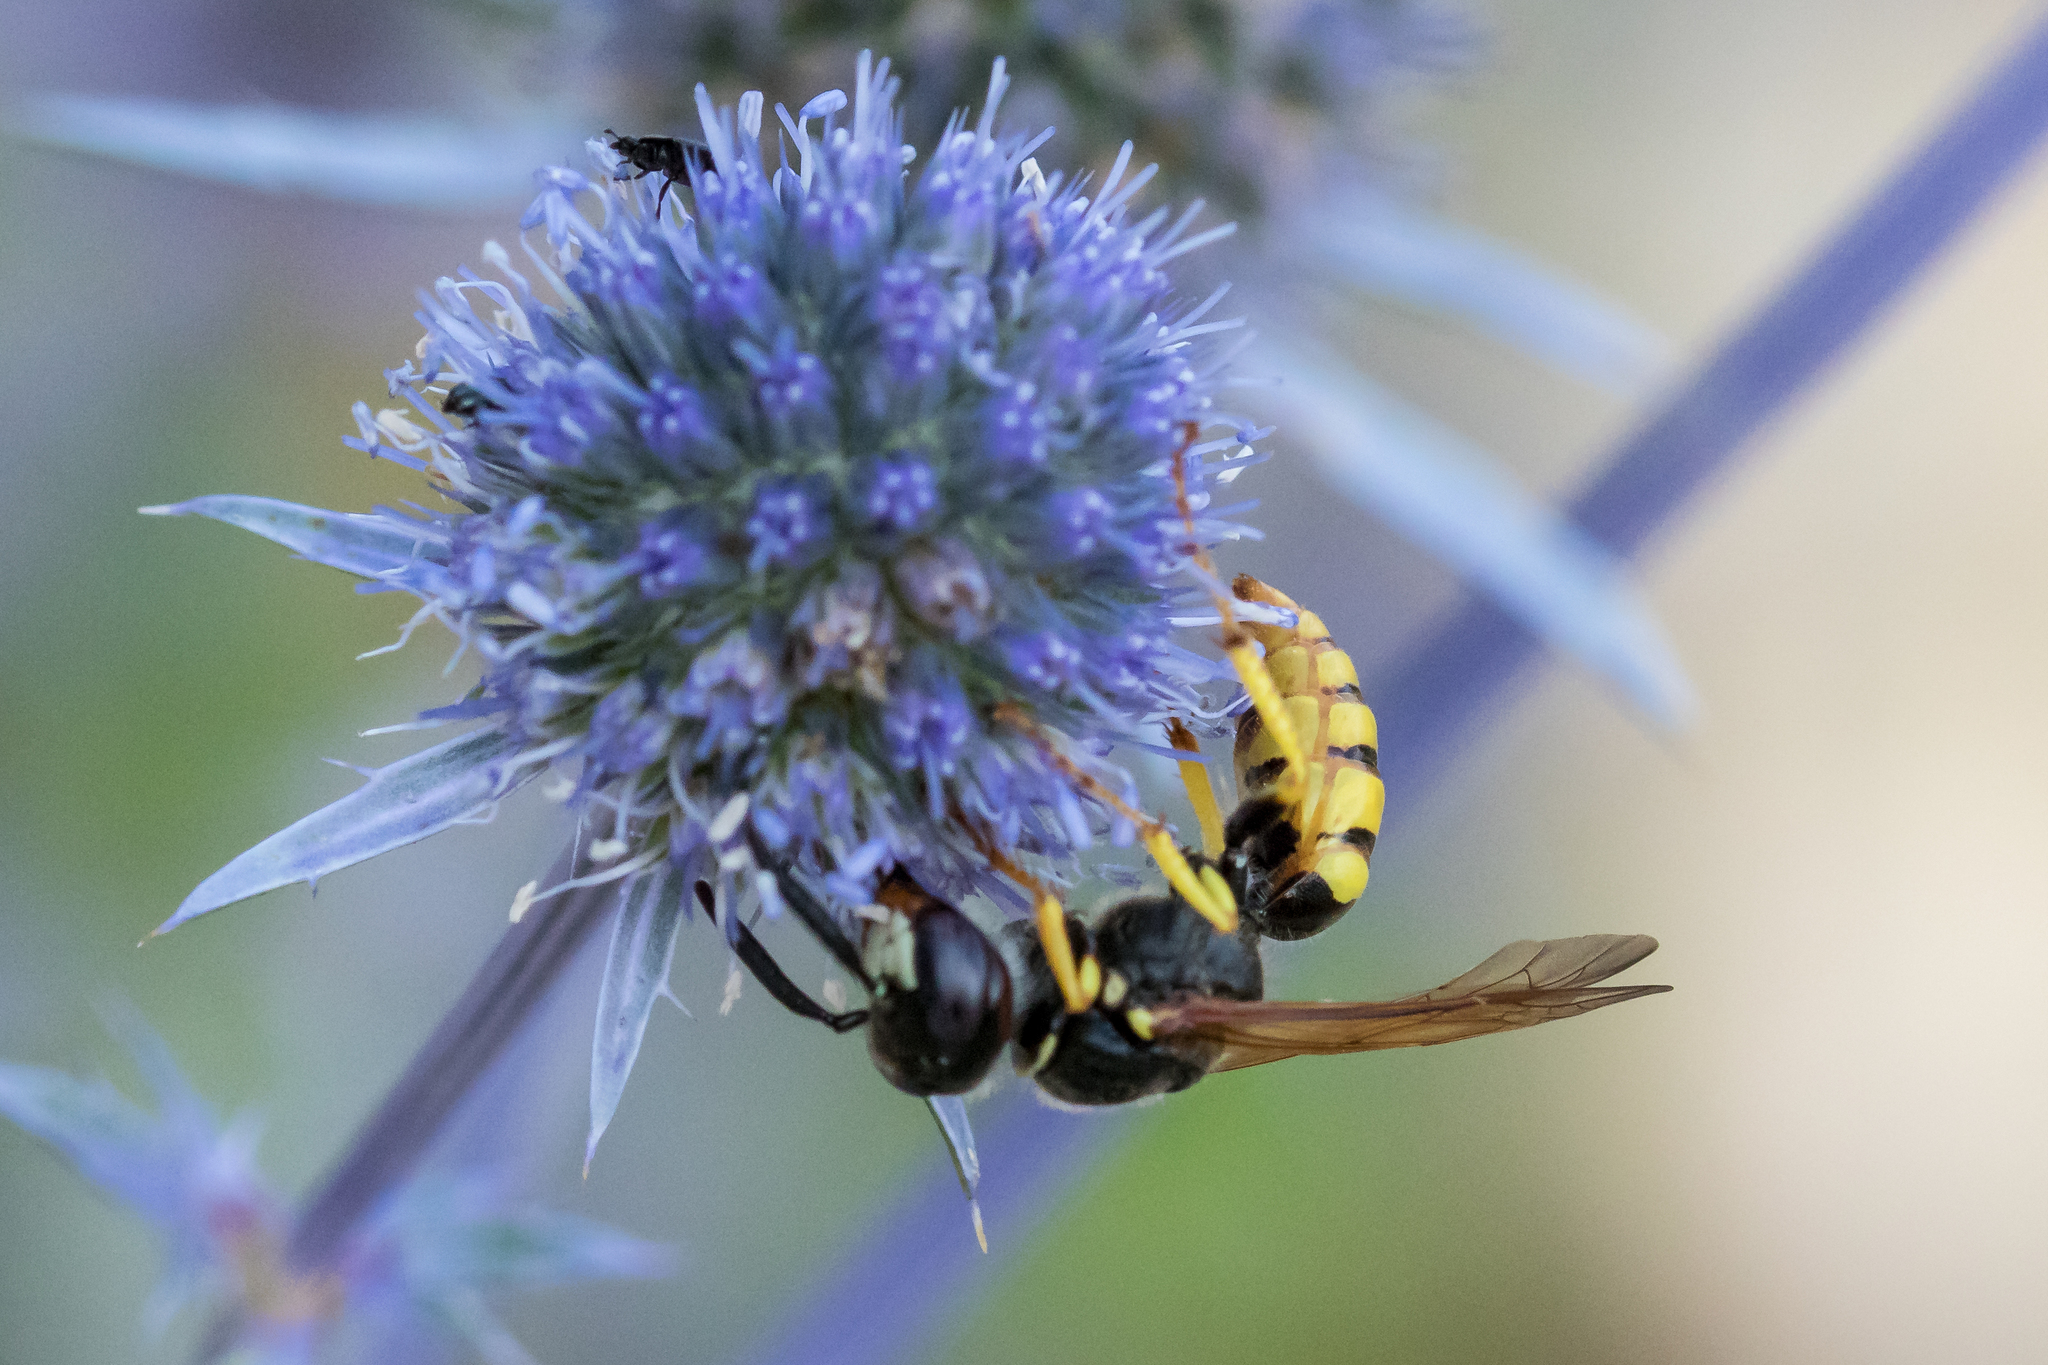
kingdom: Animalia
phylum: Arthropoda
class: Insecta
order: Hymenoptera
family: Crabronidae
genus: Philanthus
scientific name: Philanthus triangulum
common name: Bee wolf
